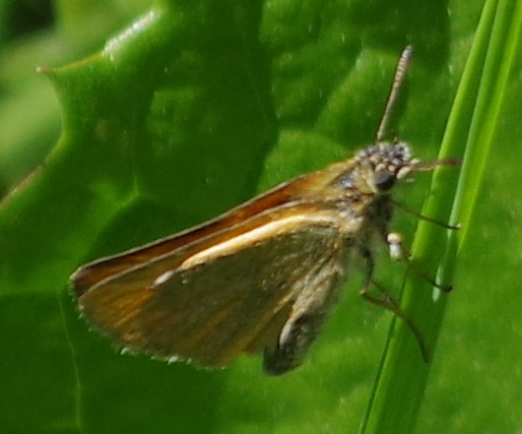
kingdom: Animalia
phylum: Arthropoda
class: Insecta
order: Lepidoptera
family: Hesperiidae
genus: Thymelicus
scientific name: Thymelicus lineola
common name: Essex skipper
